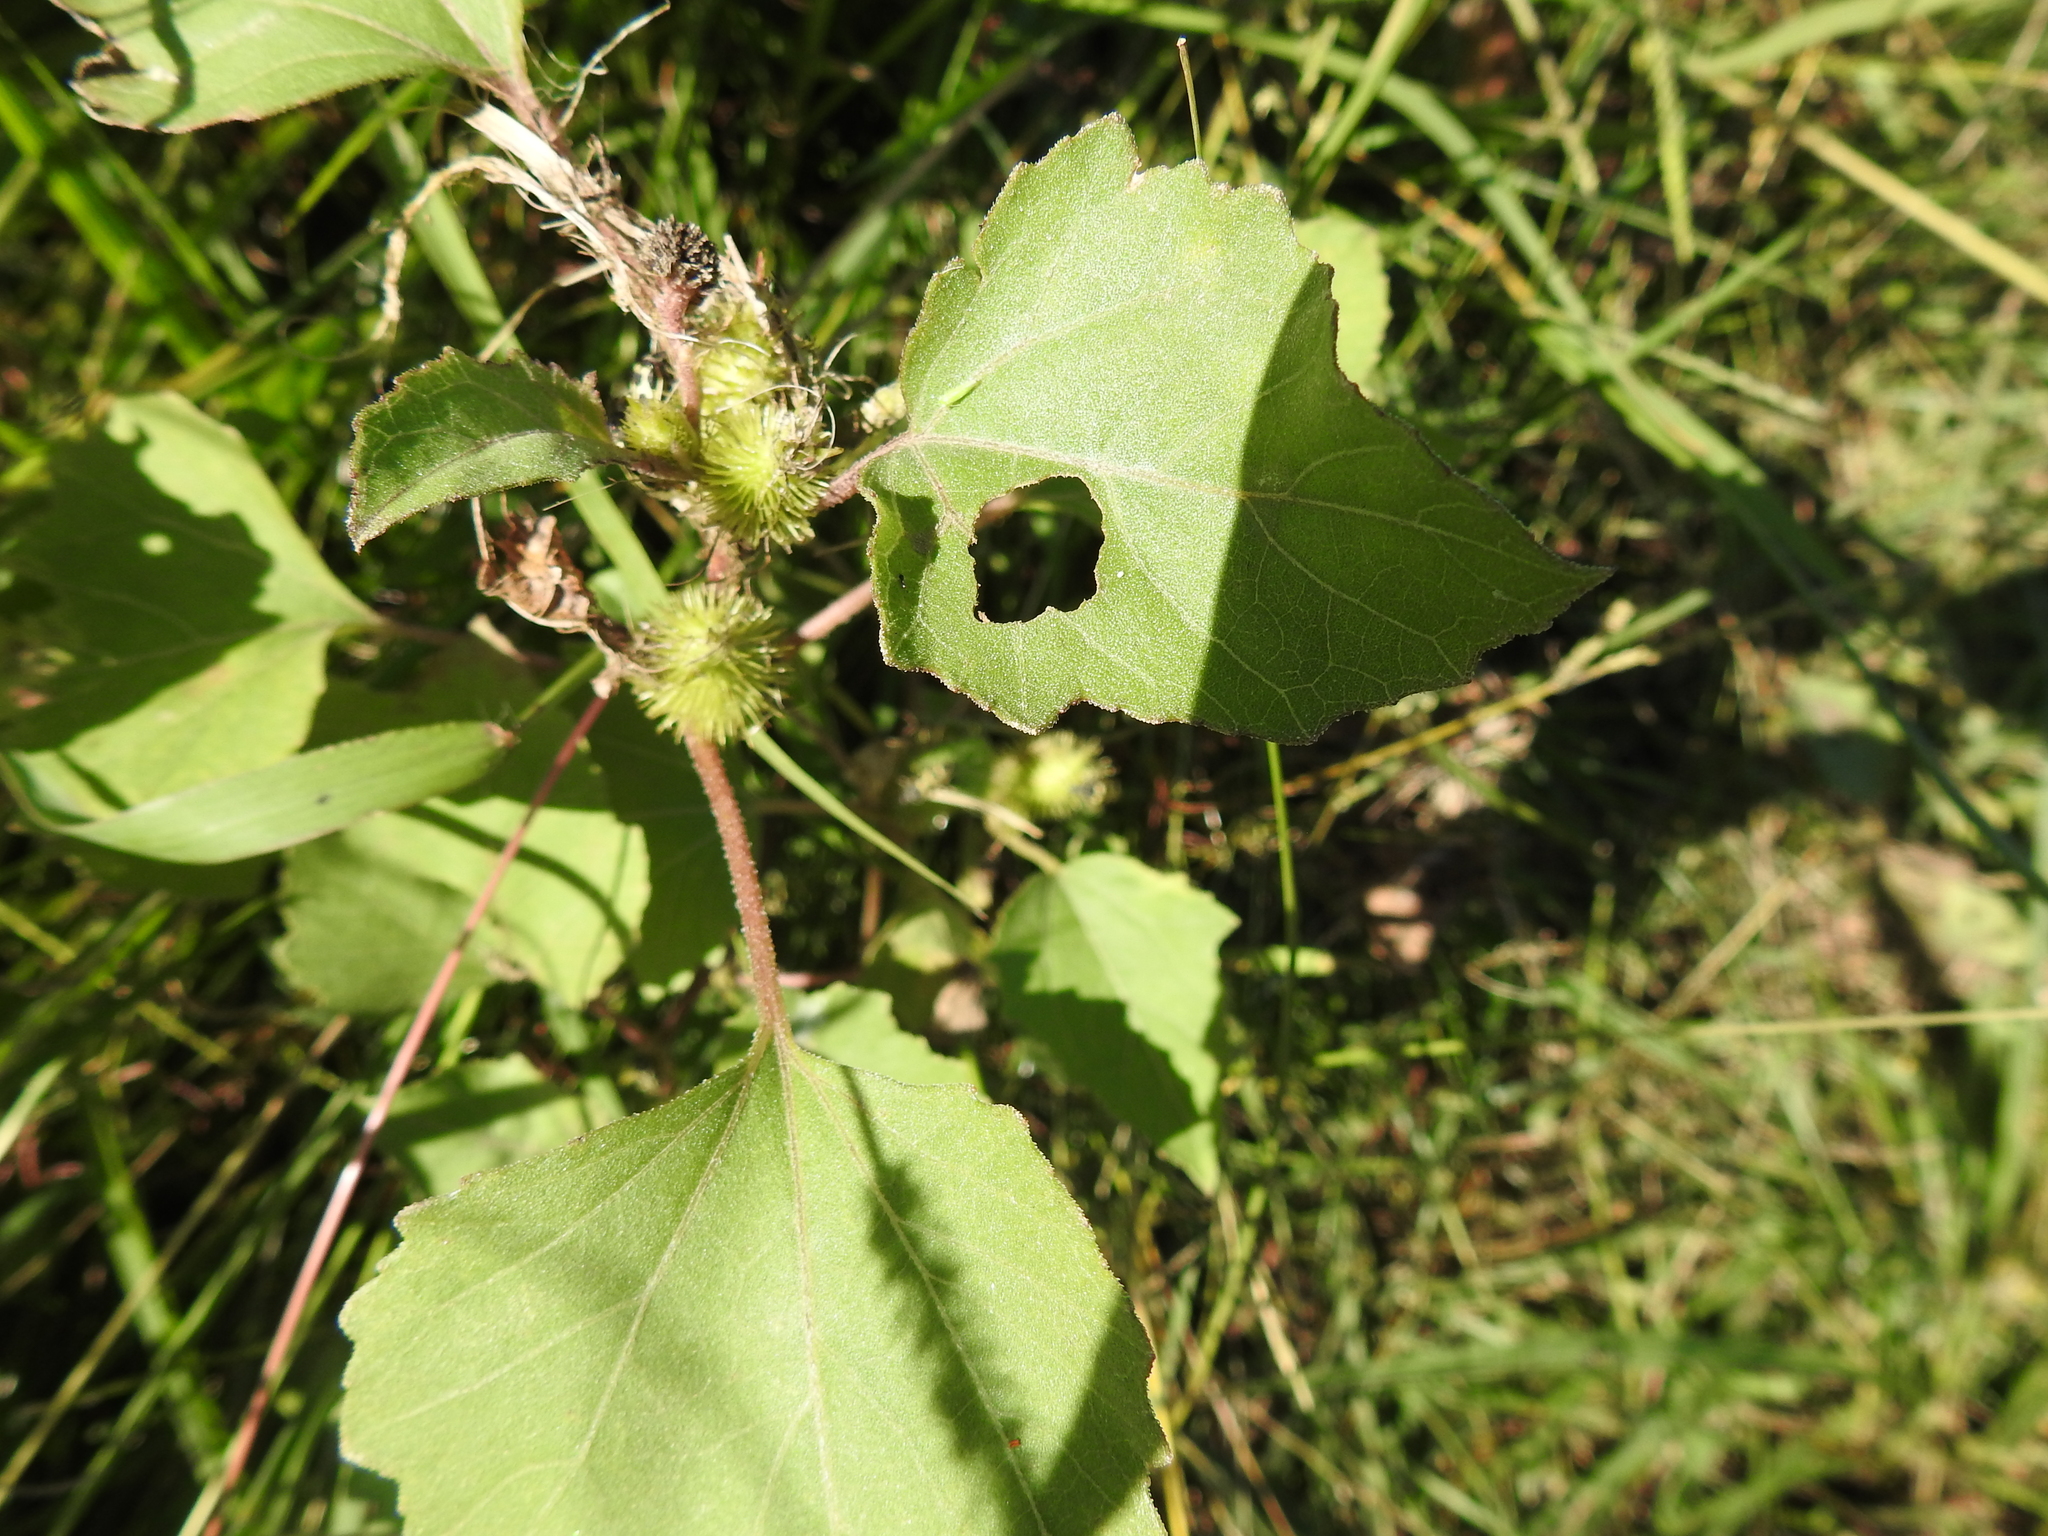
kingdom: Plantae
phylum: Tracheophyta
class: Magnoliopsida
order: Asterales
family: Asteraceae
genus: Xanthium
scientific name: Xanthium strumarium
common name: Rough cocklebur
